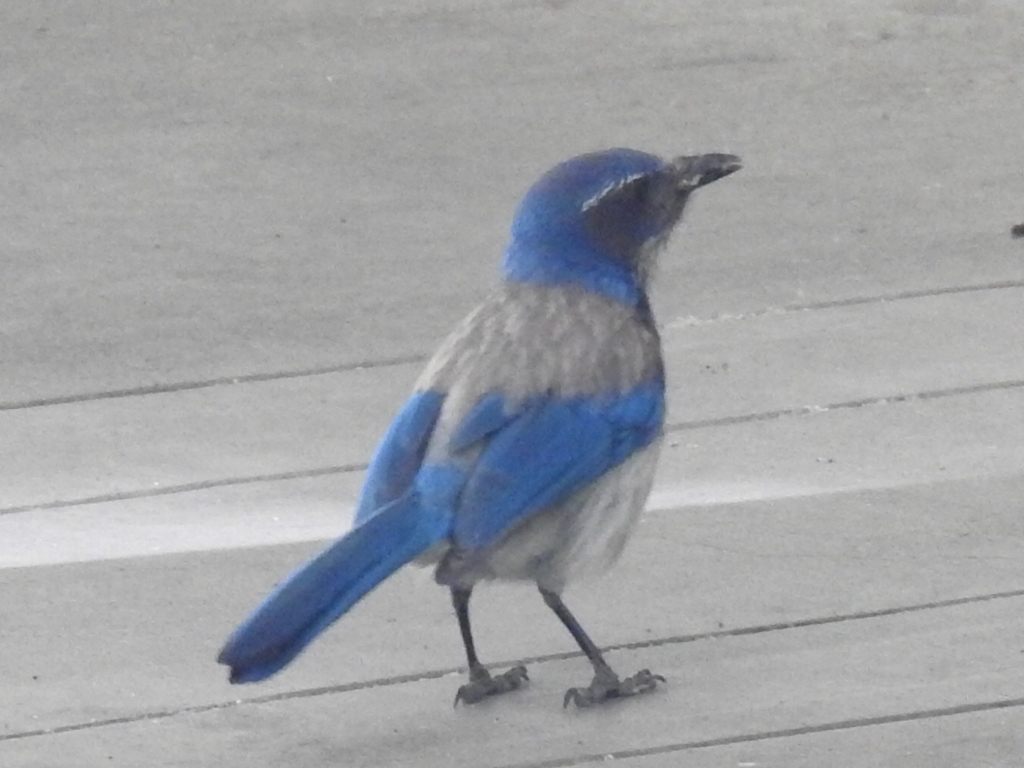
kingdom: Animalia
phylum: Chordata
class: Aves
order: Passeriformes
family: Corvidae
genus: Aphelocoma
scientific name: Aphelocoma californica
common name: California scrub-jay
